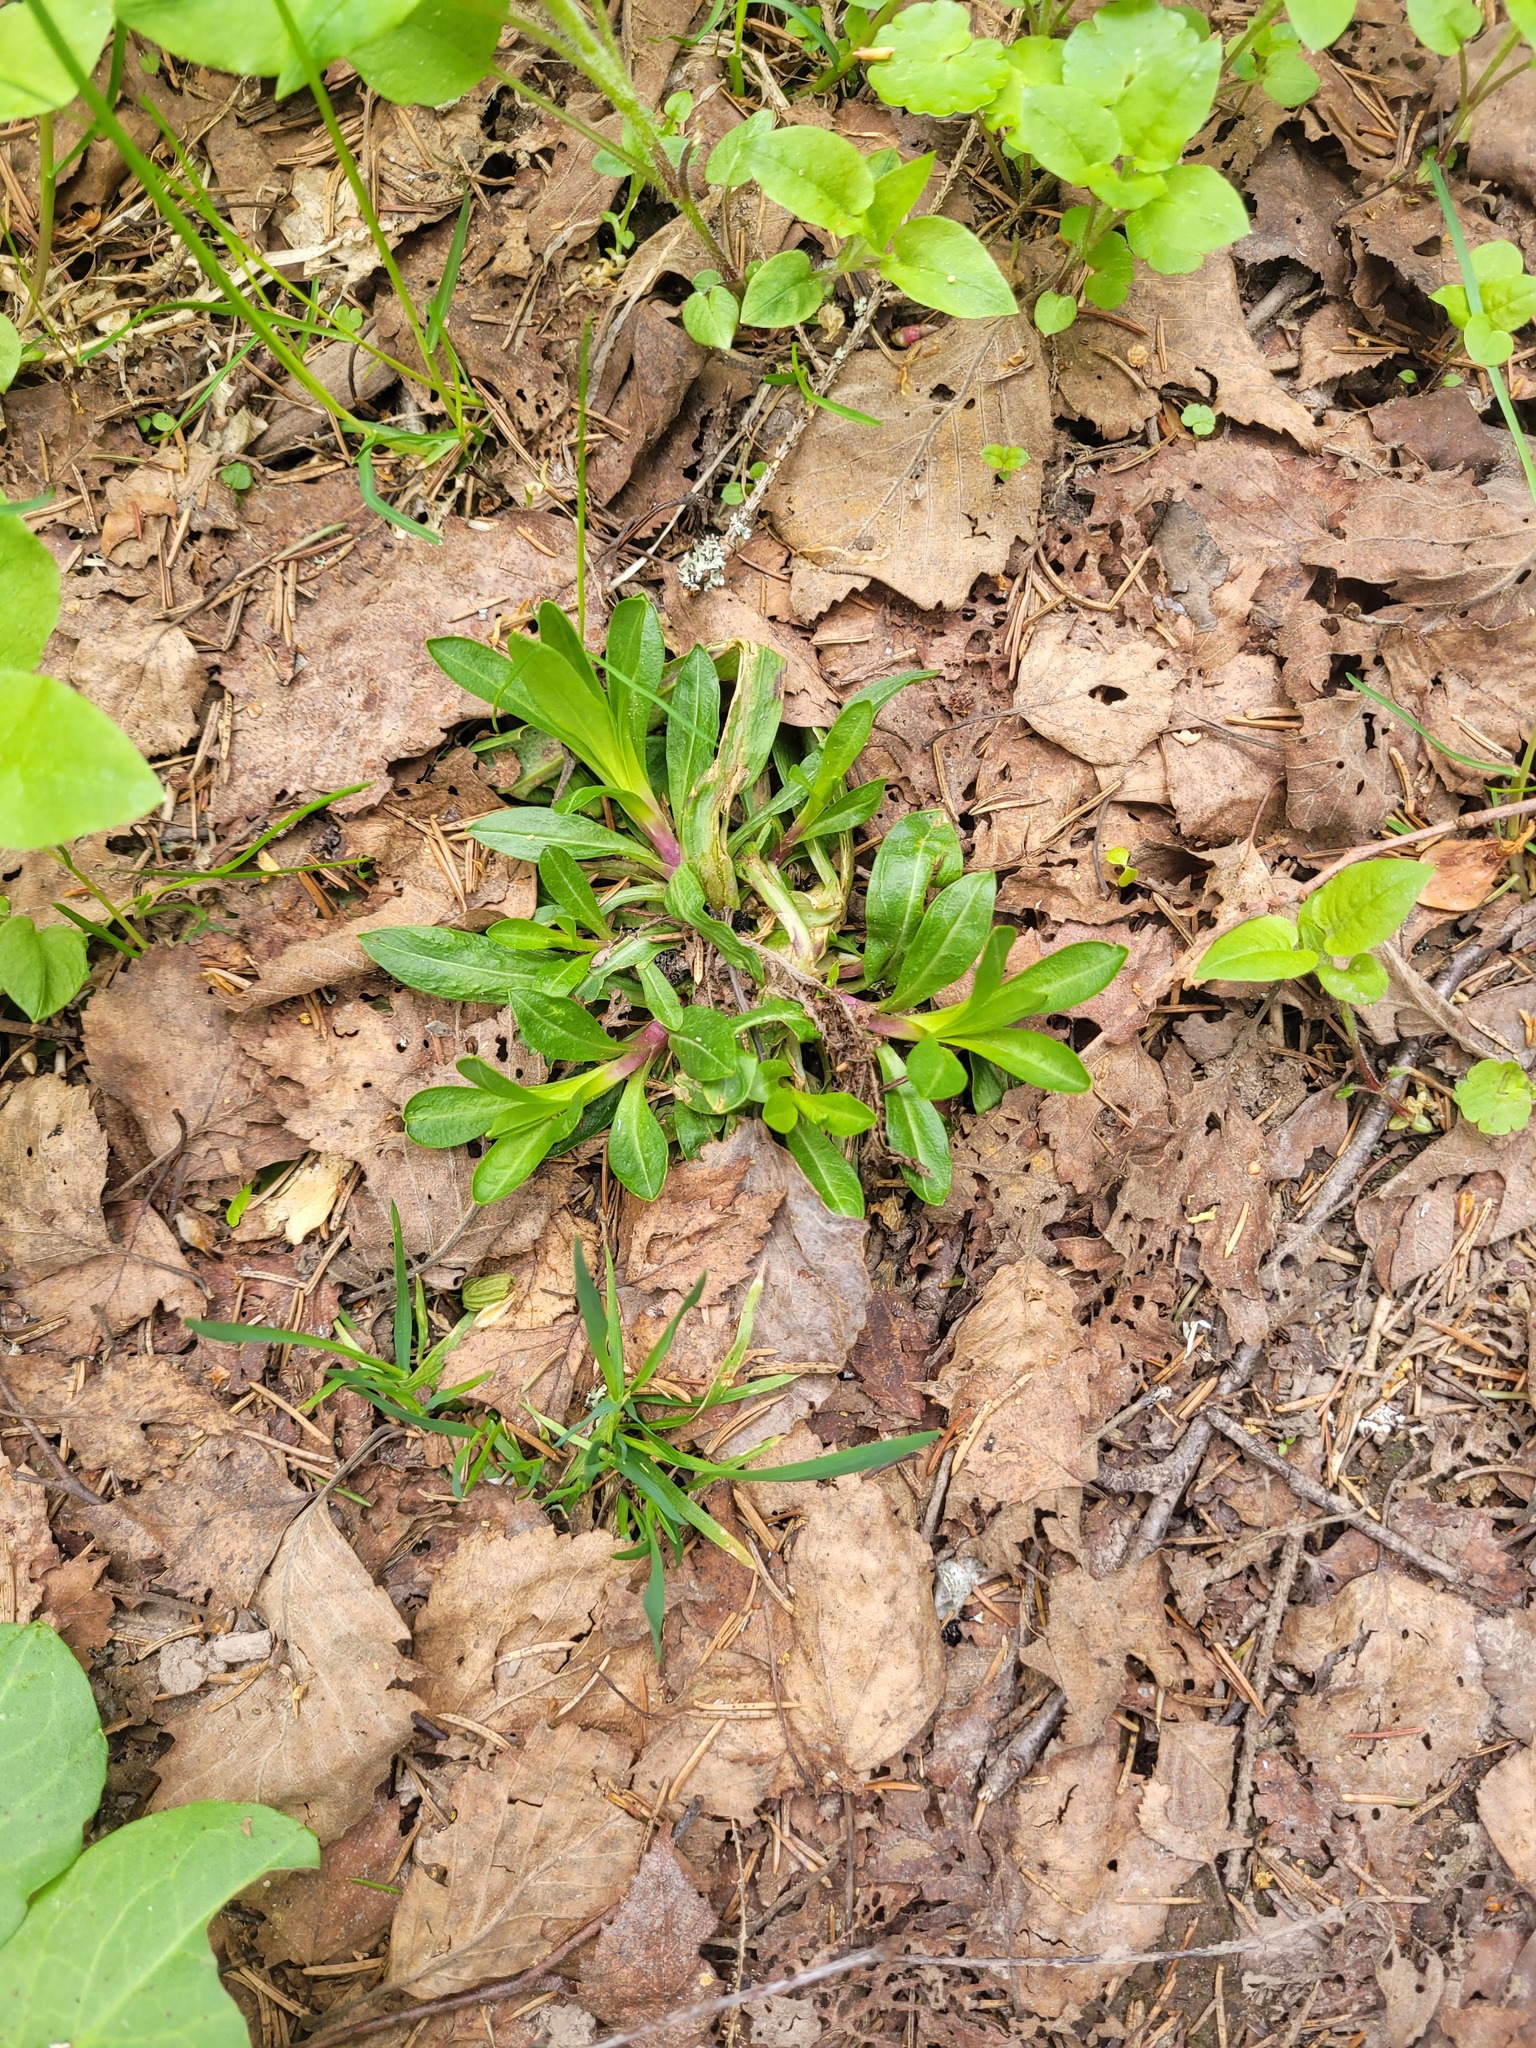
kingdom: Plantae
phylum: Tracheophyta
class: Magnoliopsida
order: Caryophyllales
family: Caryophyllaceae
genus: Silene
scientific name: Silene flos-cuculi
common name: Ragged-robin
